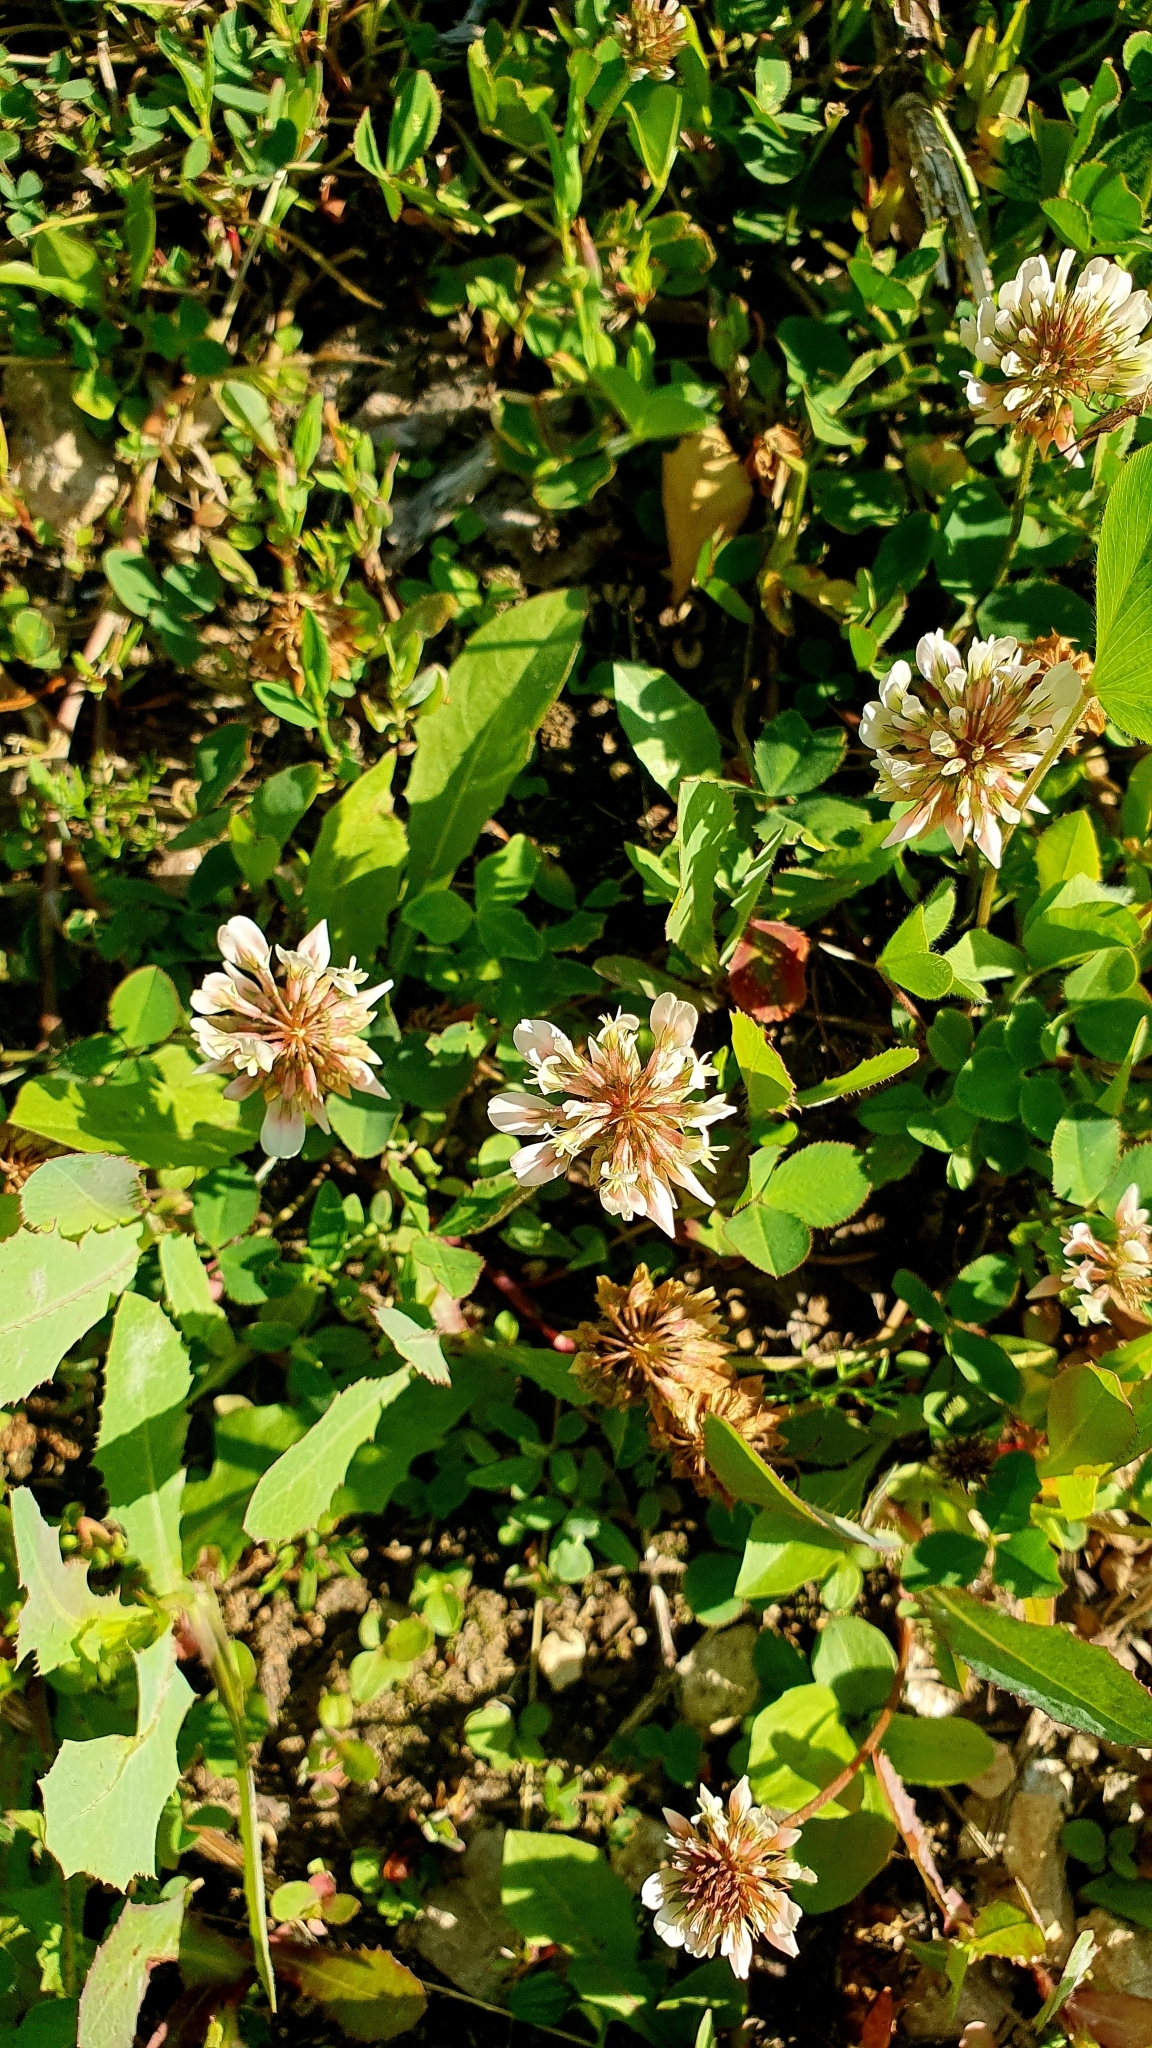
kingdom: Plantae
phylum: Tracheophyta
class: Magnoliopsida
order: Fabales
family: Fabaceae
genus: Trifolium
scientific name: Trifolium repens
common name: White clover
